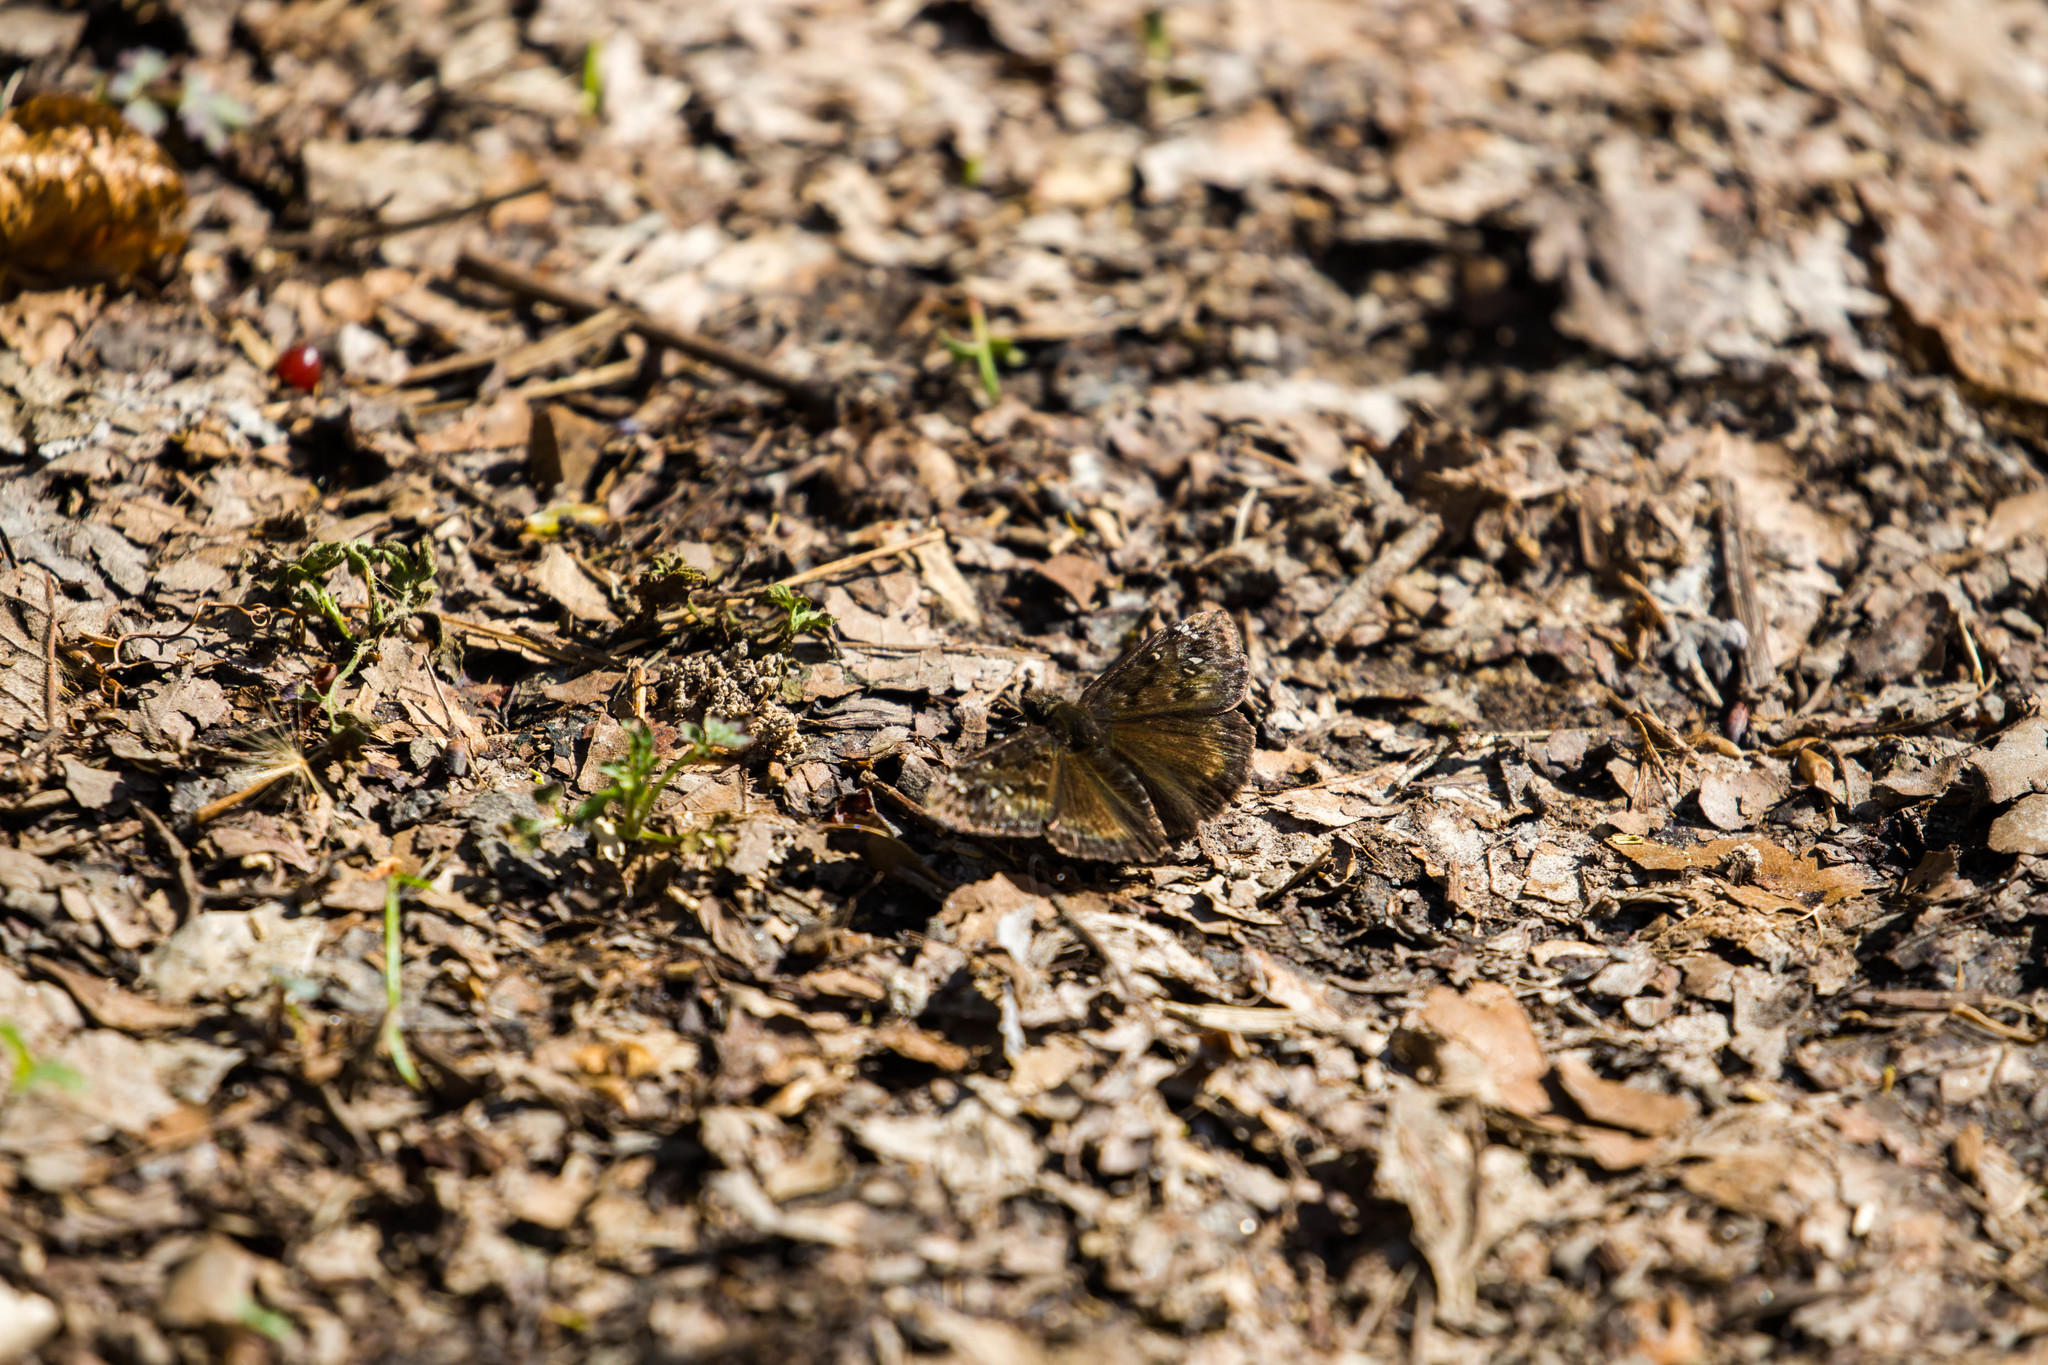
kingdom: Animalia
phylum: Arthropoda
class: Insecta
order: Lepidoptera
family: Hesperiidae
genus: Erynnis
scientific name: Erynnis juvenalis
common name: Juvenal's duskywing
